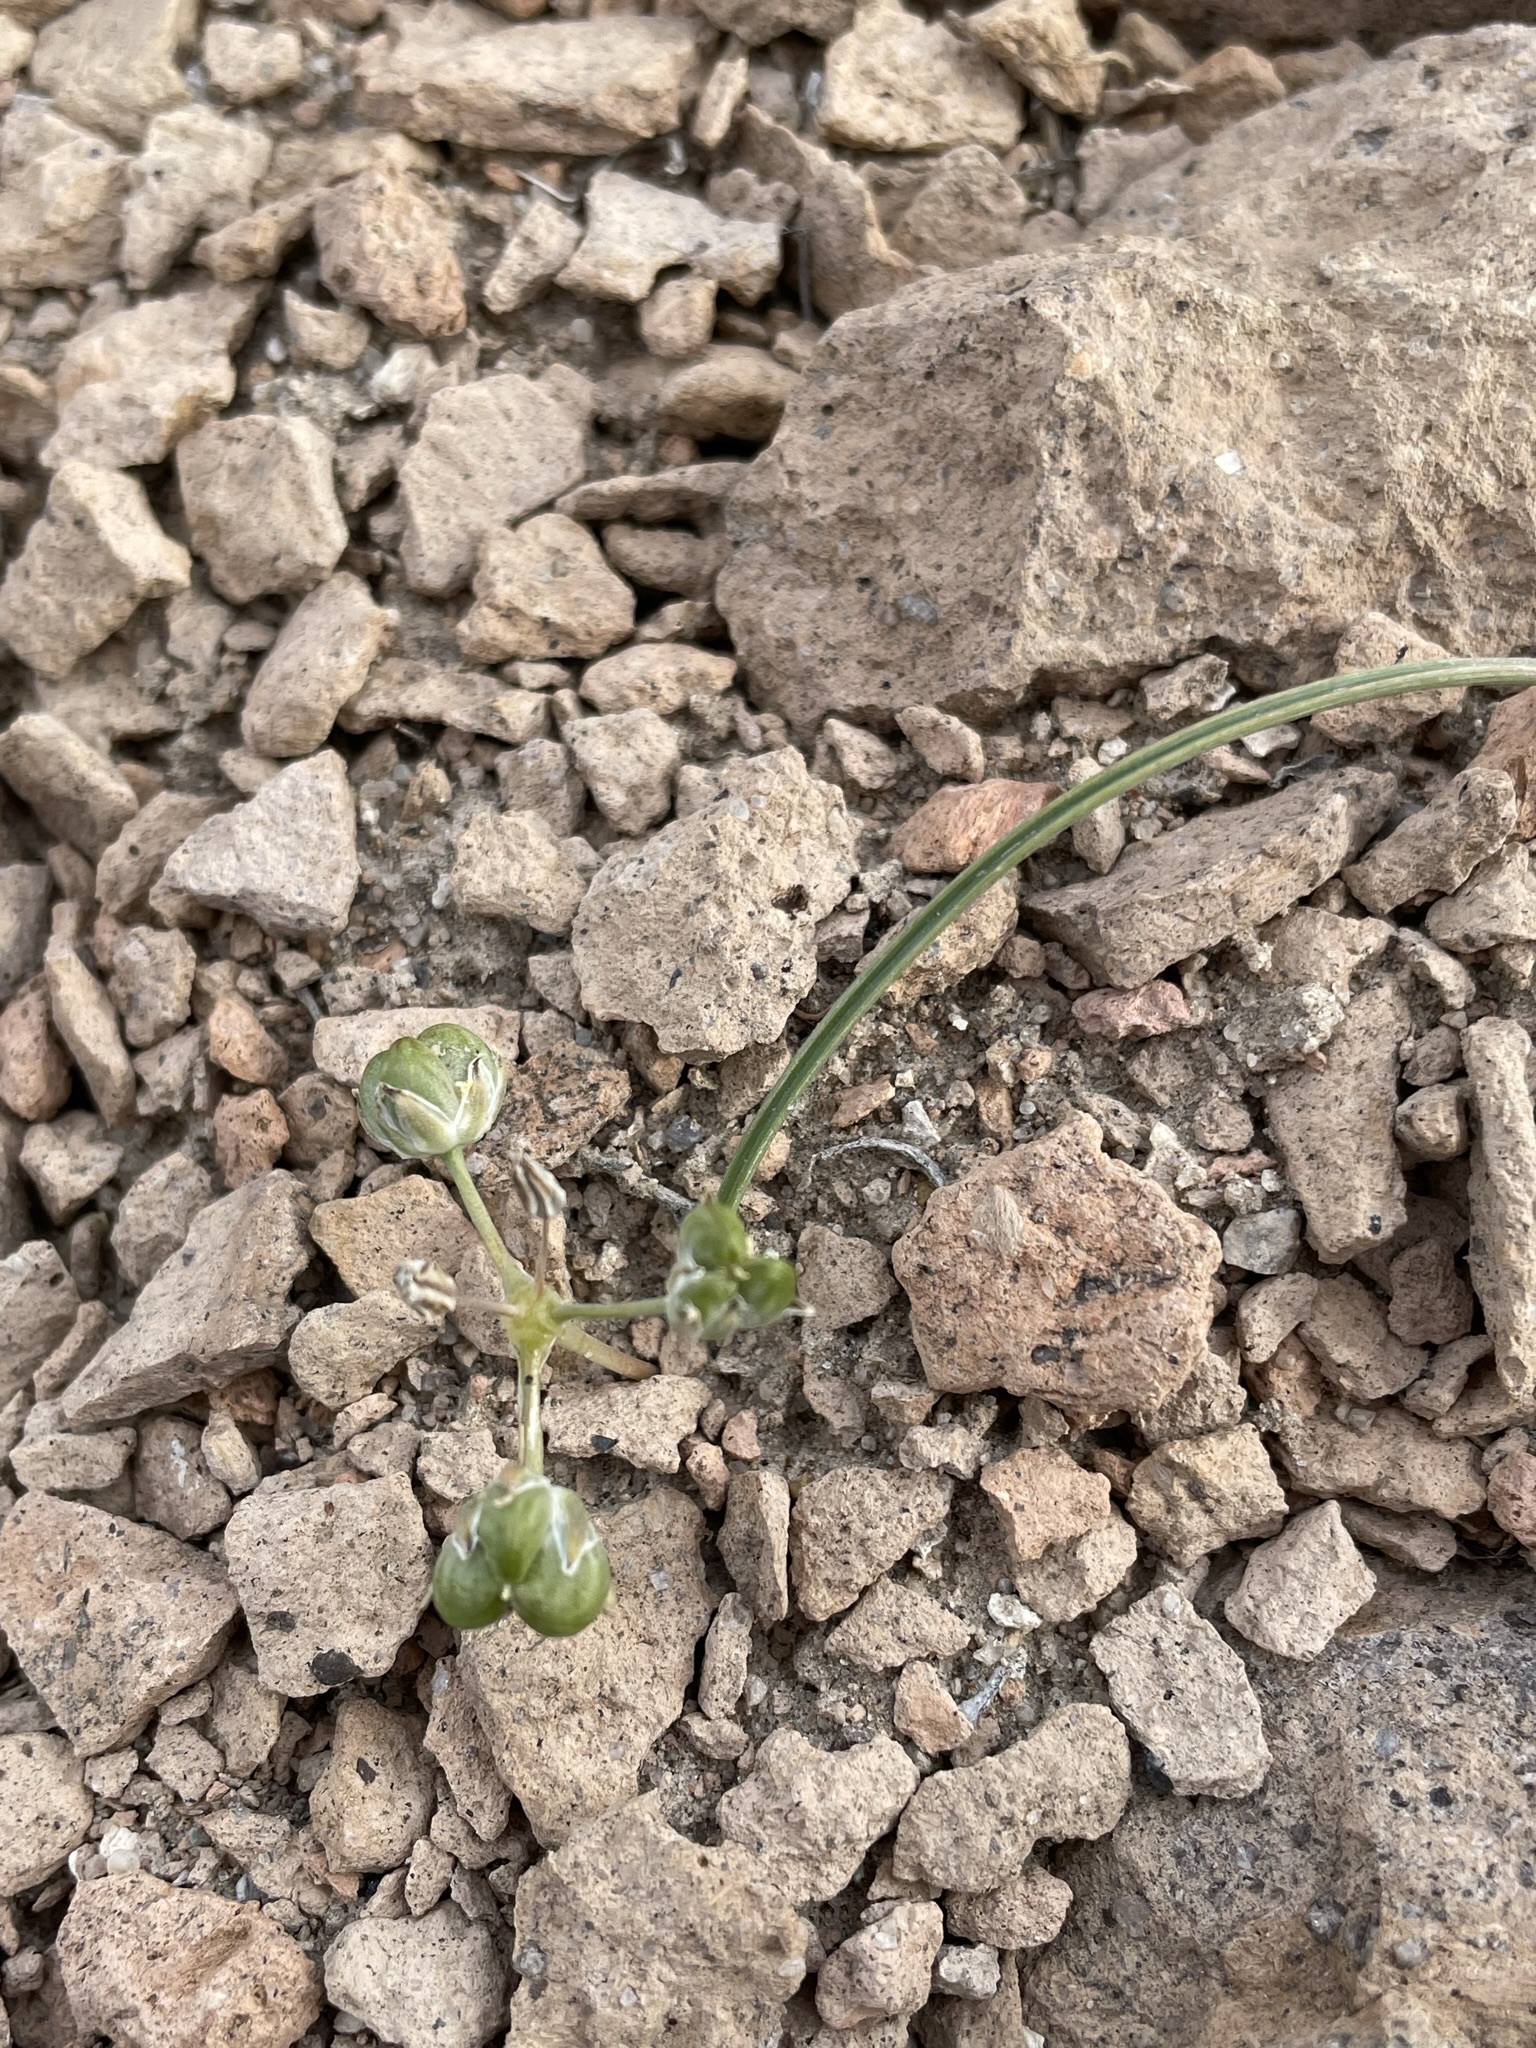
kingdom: Plantae
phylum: Tracheophyta
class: Liliopsida
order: Asparagales
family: Asparagaceae
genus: Muilla
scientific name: Muilla coronata
